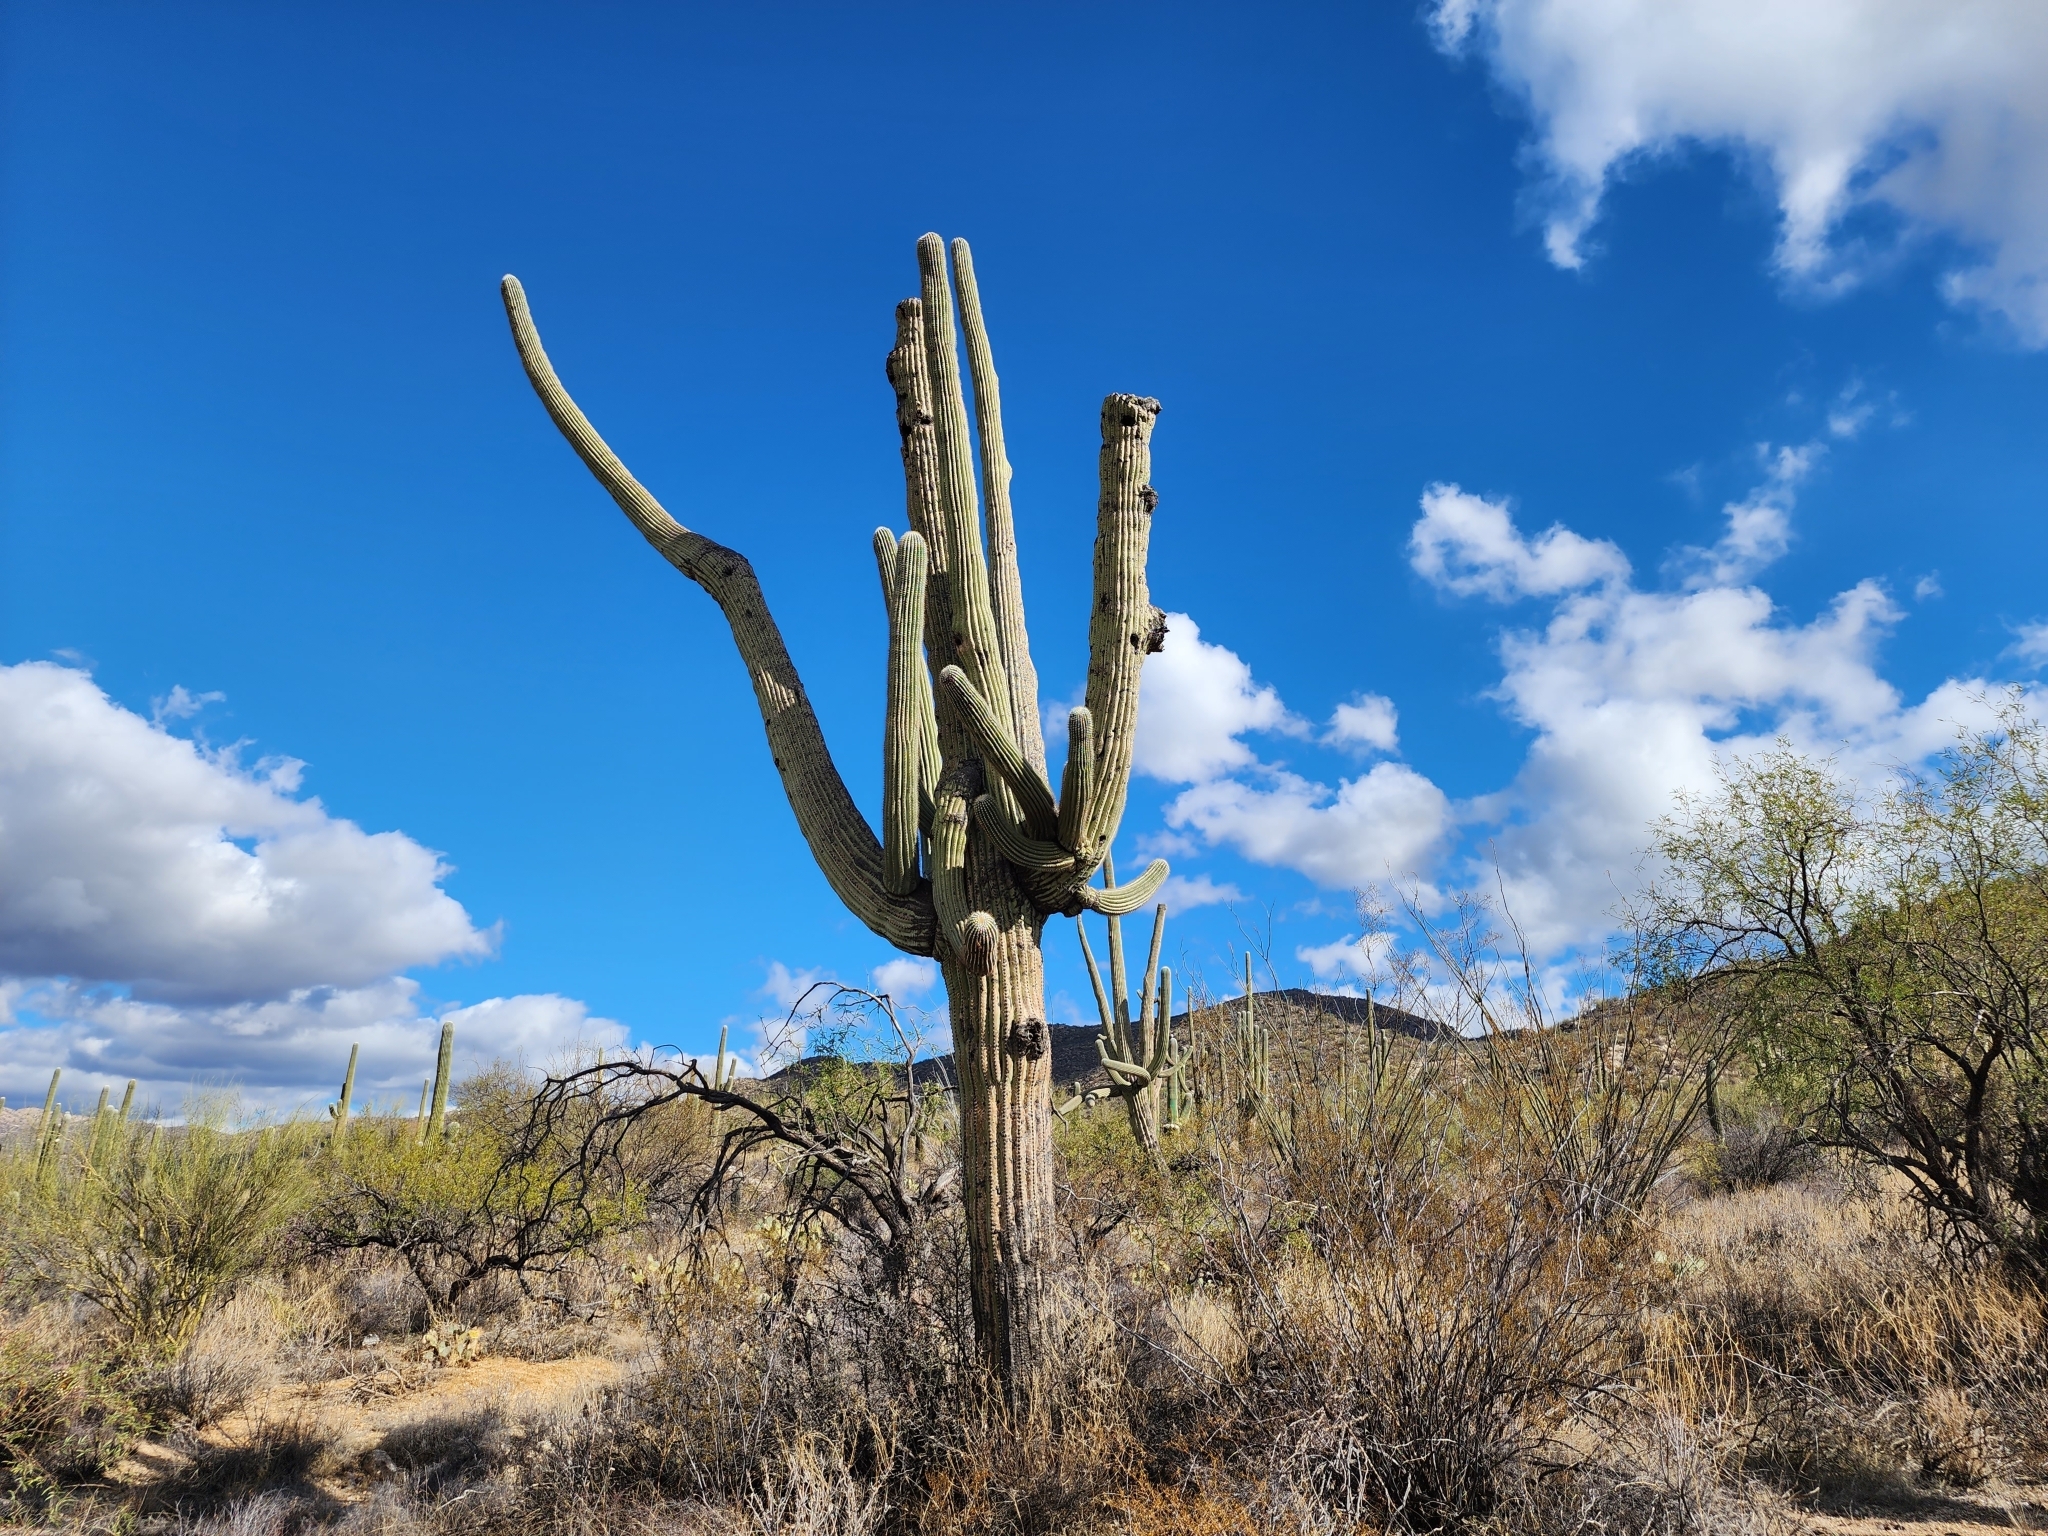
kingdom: Plantae
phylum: Tracheophyta
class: Magnoliopsida
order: Caryophyllales
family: Cactaceae
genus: Carnegiea
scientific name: Carnegiea gigantea
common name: Saguaro
